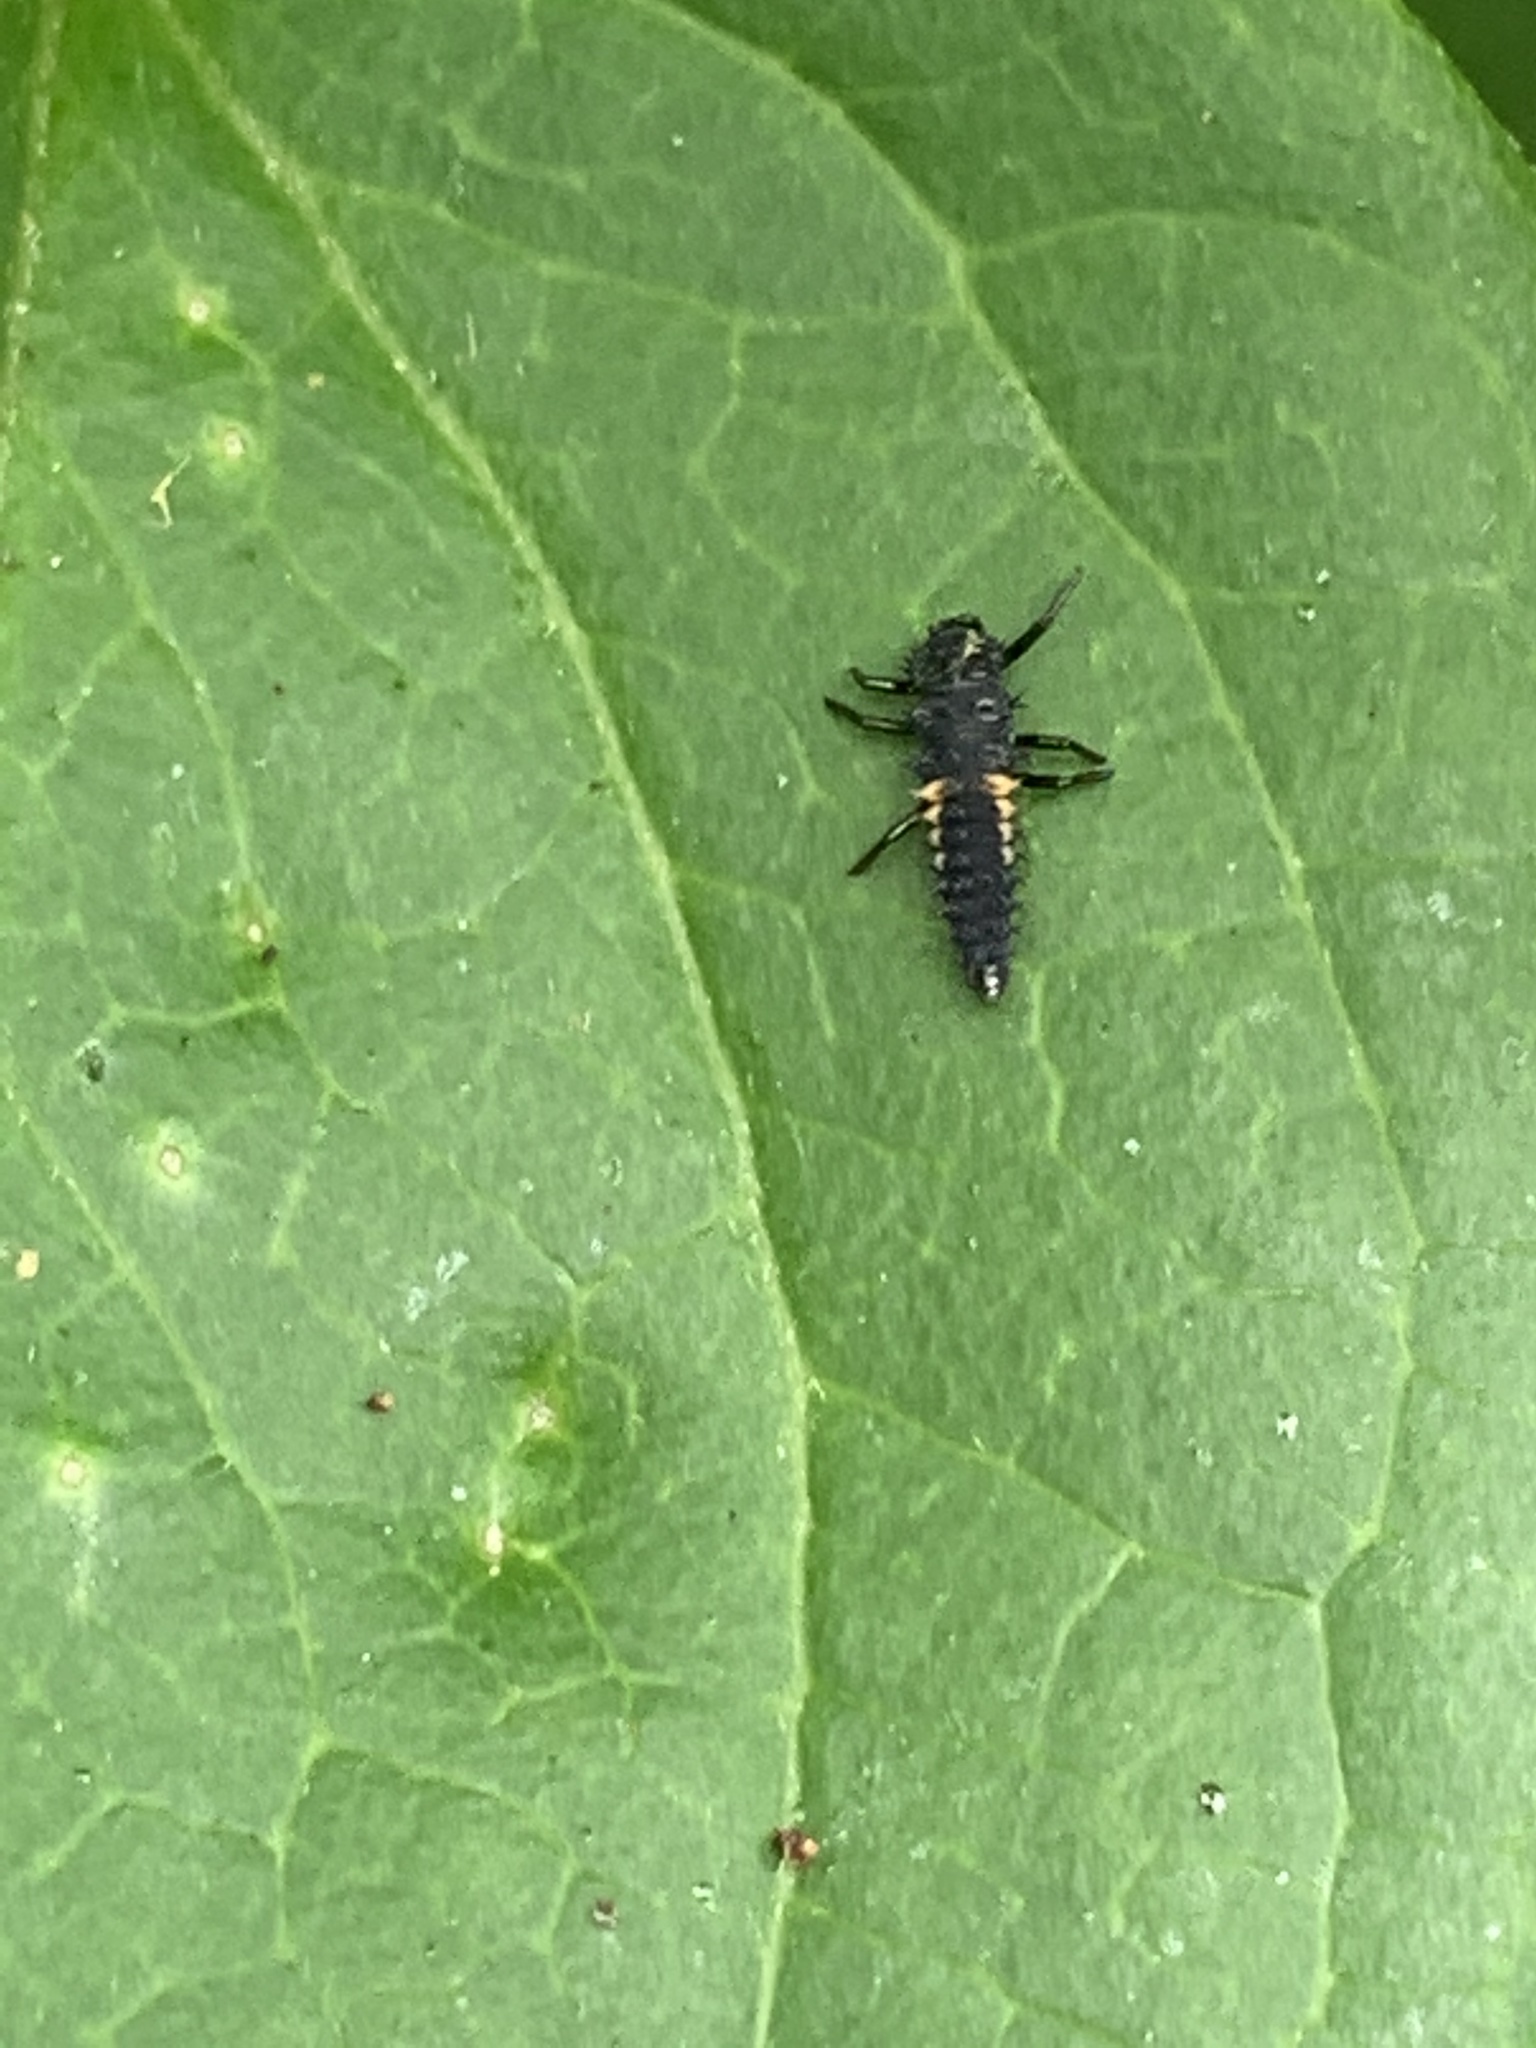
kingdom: Animalia
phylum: Arthropoda
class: Insecta
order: Coleoptera
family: Coccinellidae
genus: Harmonia
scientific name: Harmonia axyridis
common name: Harlequin ladybird
